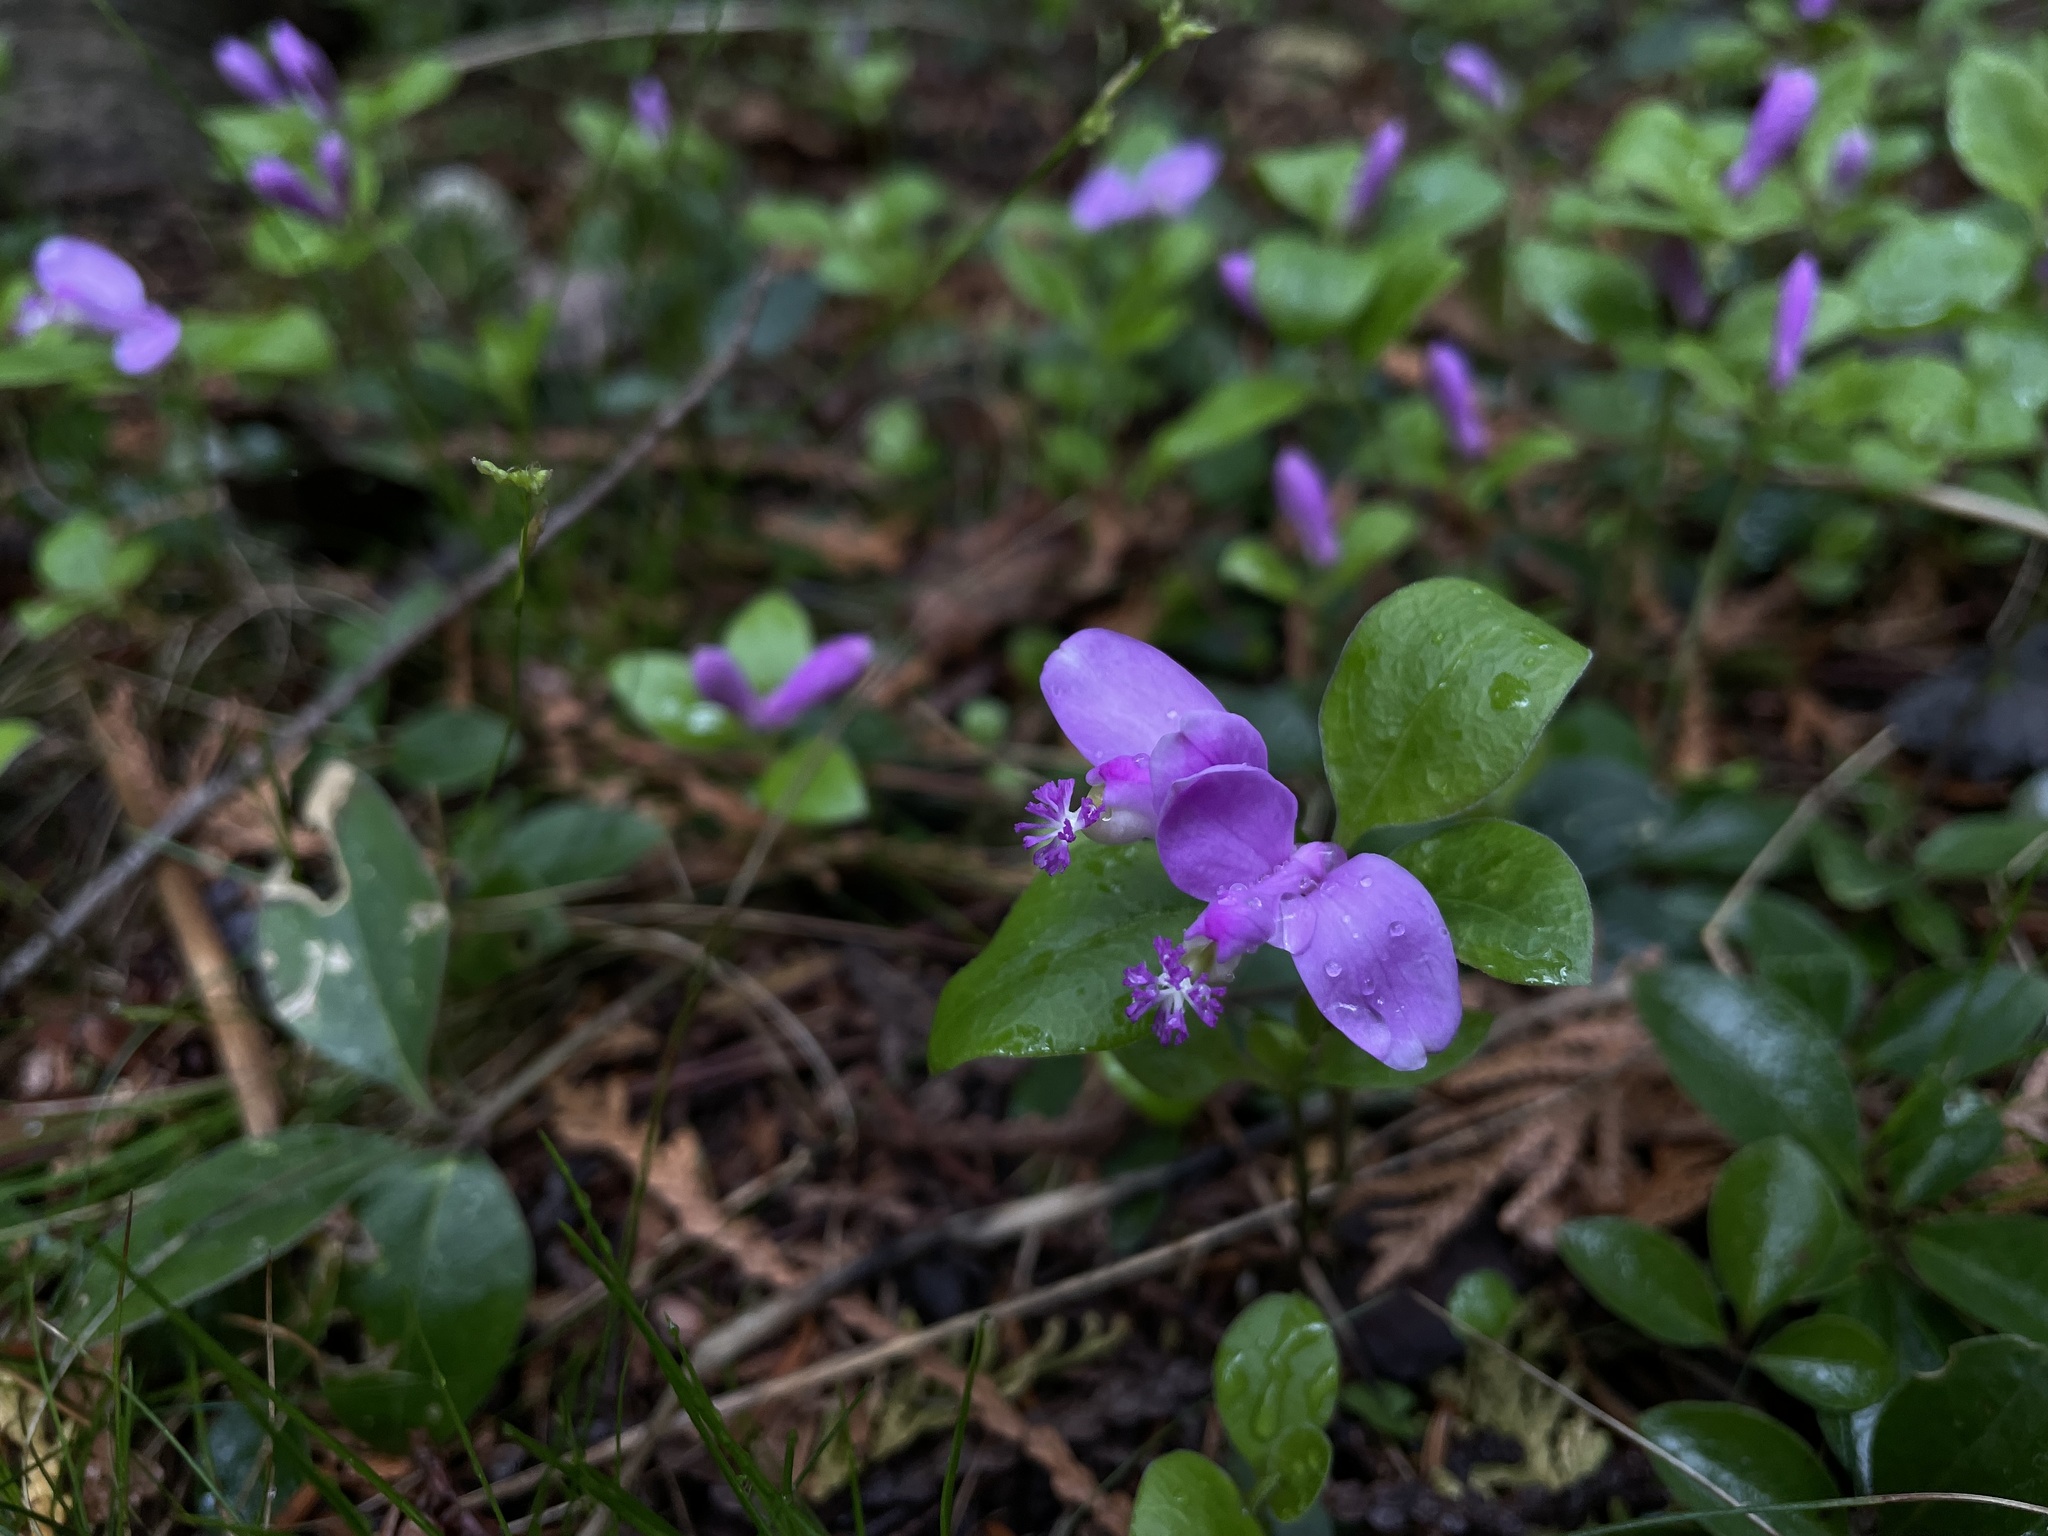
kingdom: Plantae
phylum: Tracheophyta
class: Magnoliopsida
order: Fabales
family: Polygalaceae
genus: Polygaloides
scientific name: Polygaloides paucifolia
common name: Bird-on-the-wing
